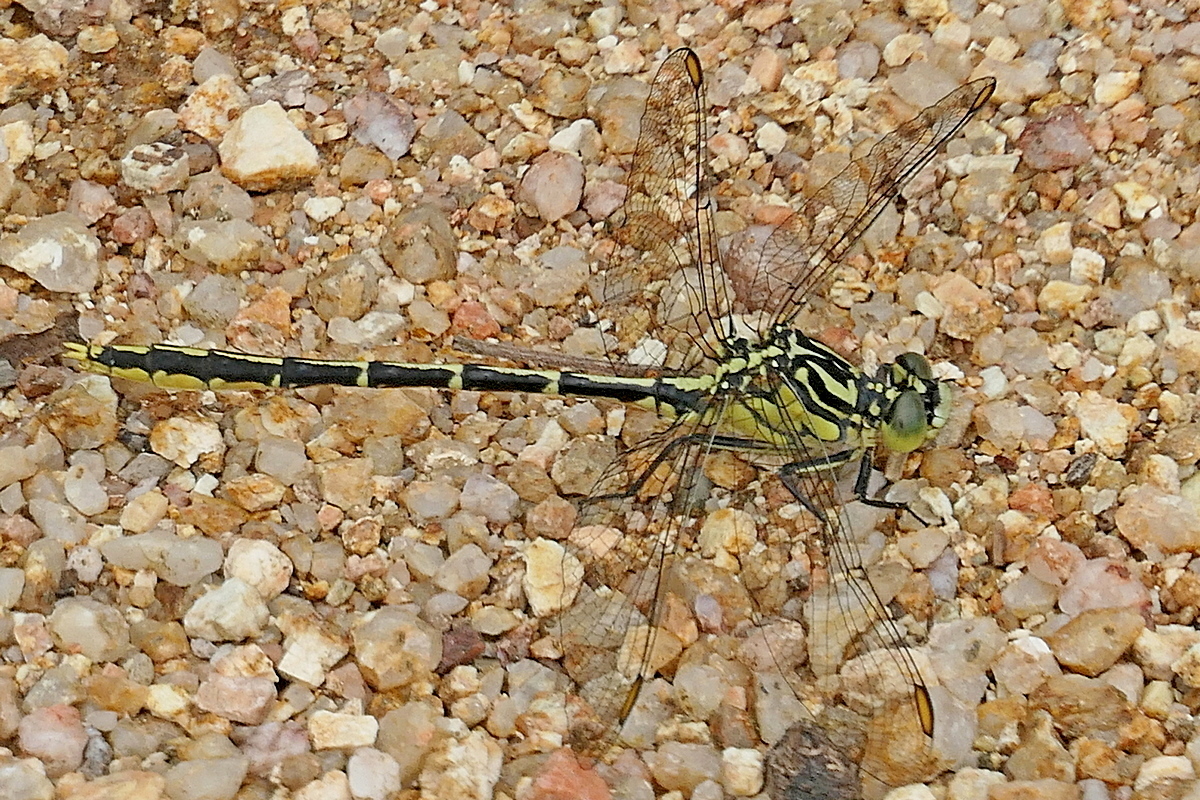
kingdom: Animalia
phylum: Arthropoda
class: Insecta
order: Odonata
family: Gomphidae
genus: Austrogomphus
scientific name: Austrogomphus guerini
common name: Yellow-striped hunter
